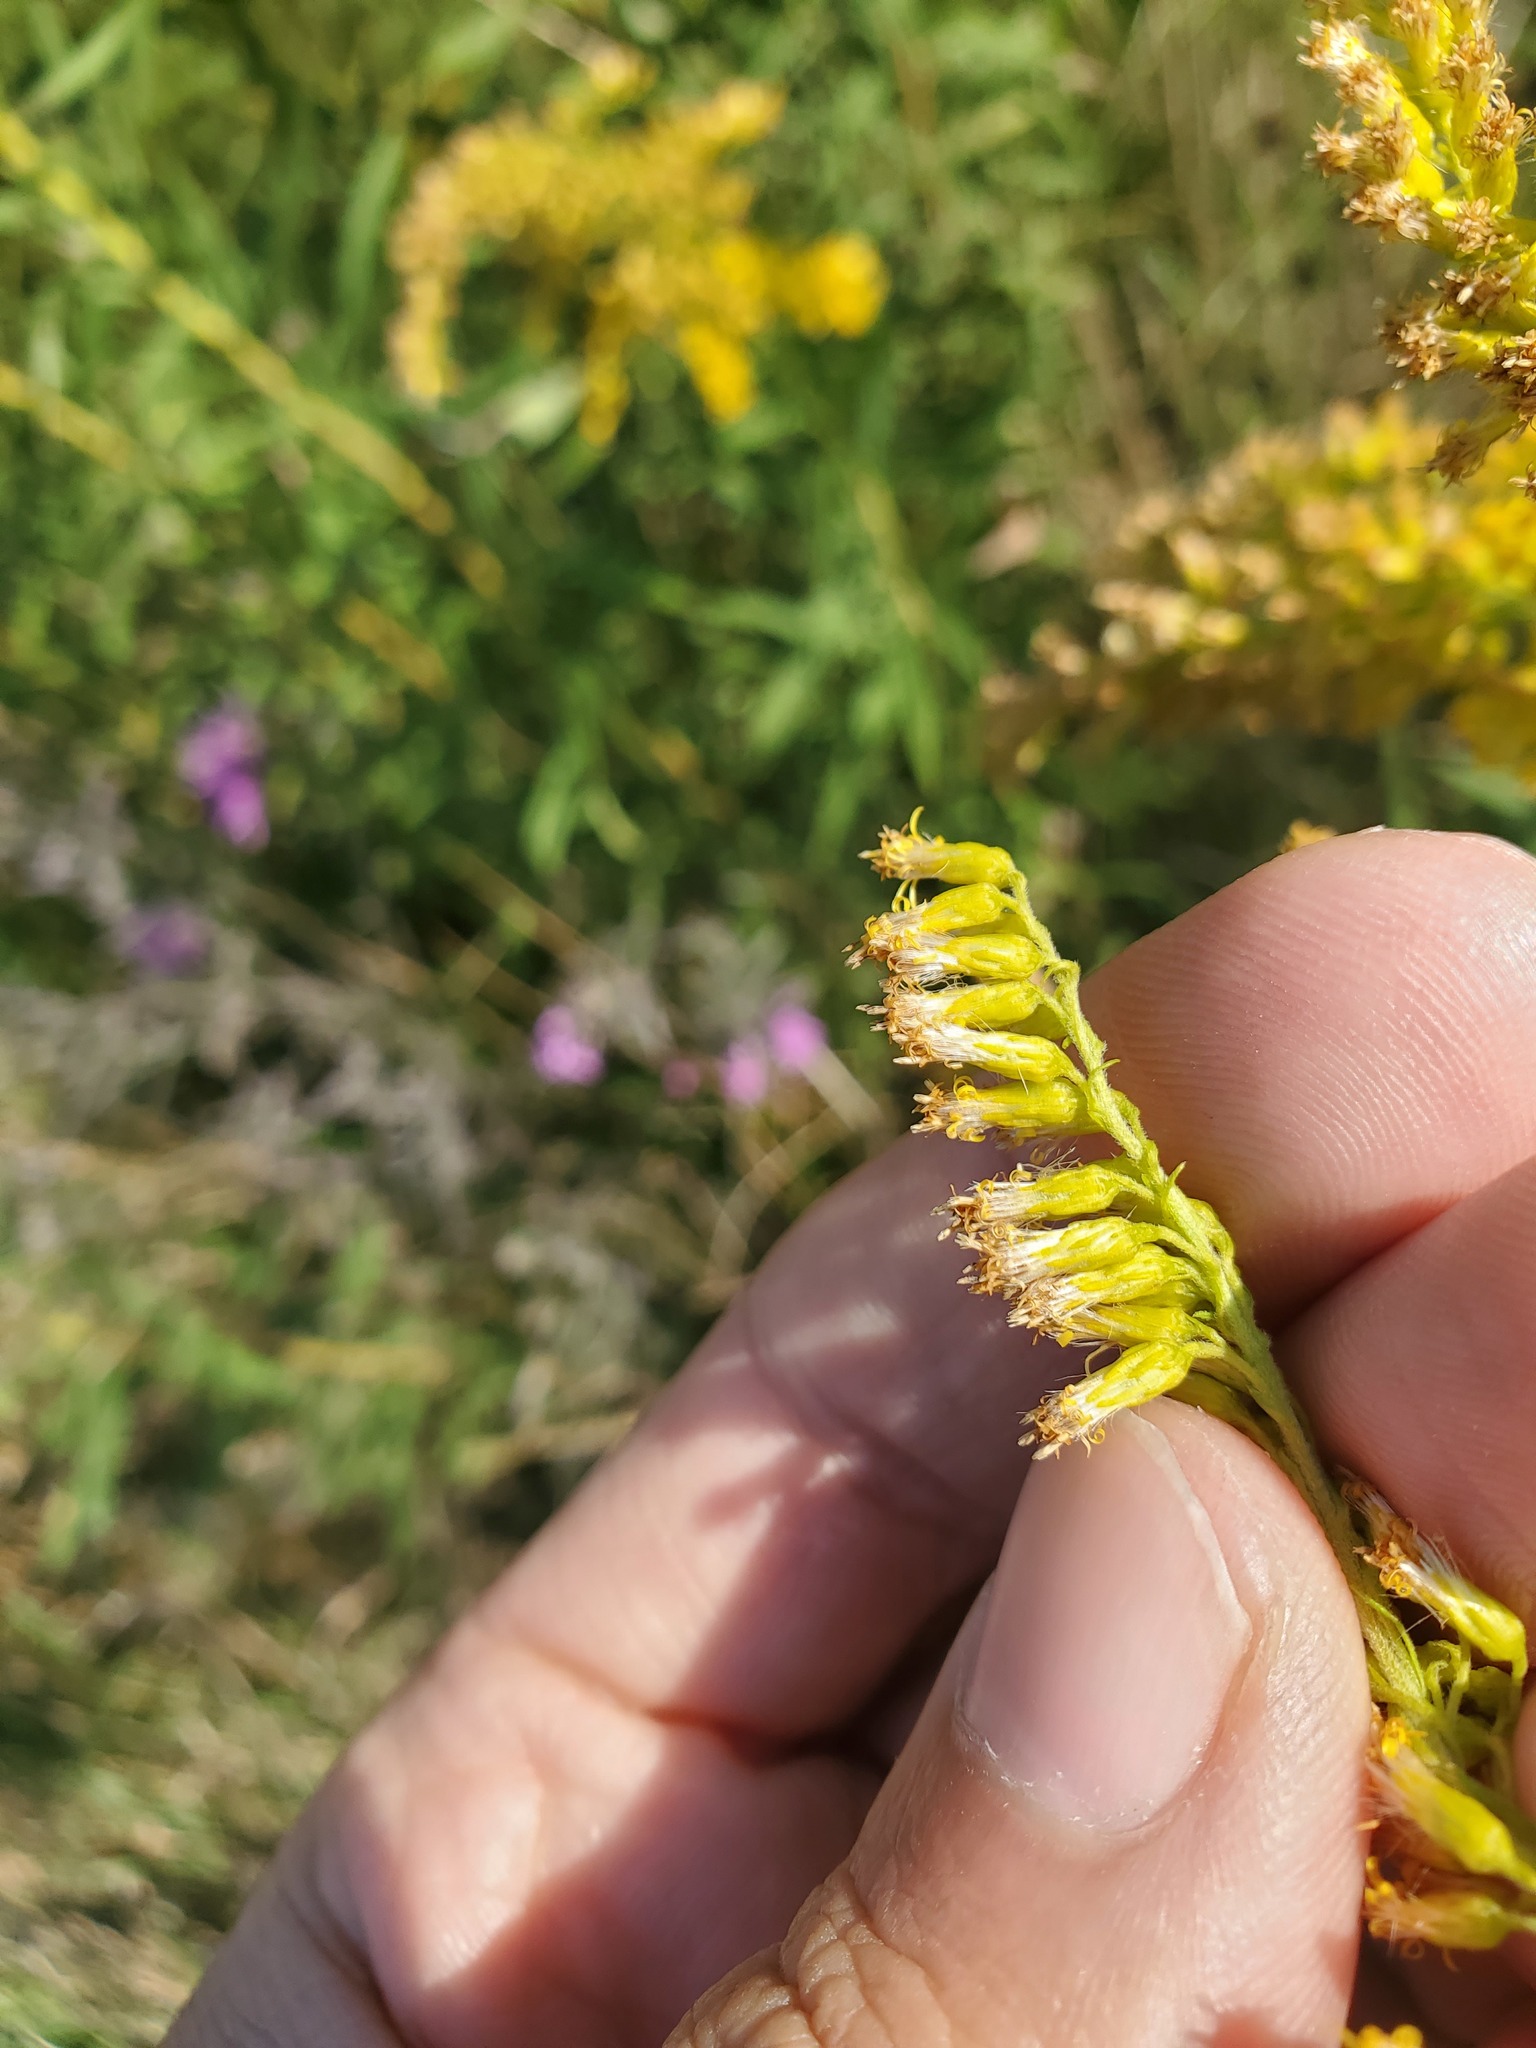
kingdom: Plantae
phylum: Tracheophyta
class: Magnoliopsida
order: Asterales
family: Asteraceae
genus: Solidago
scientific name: Solidago altissima
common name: Late goldenrod
